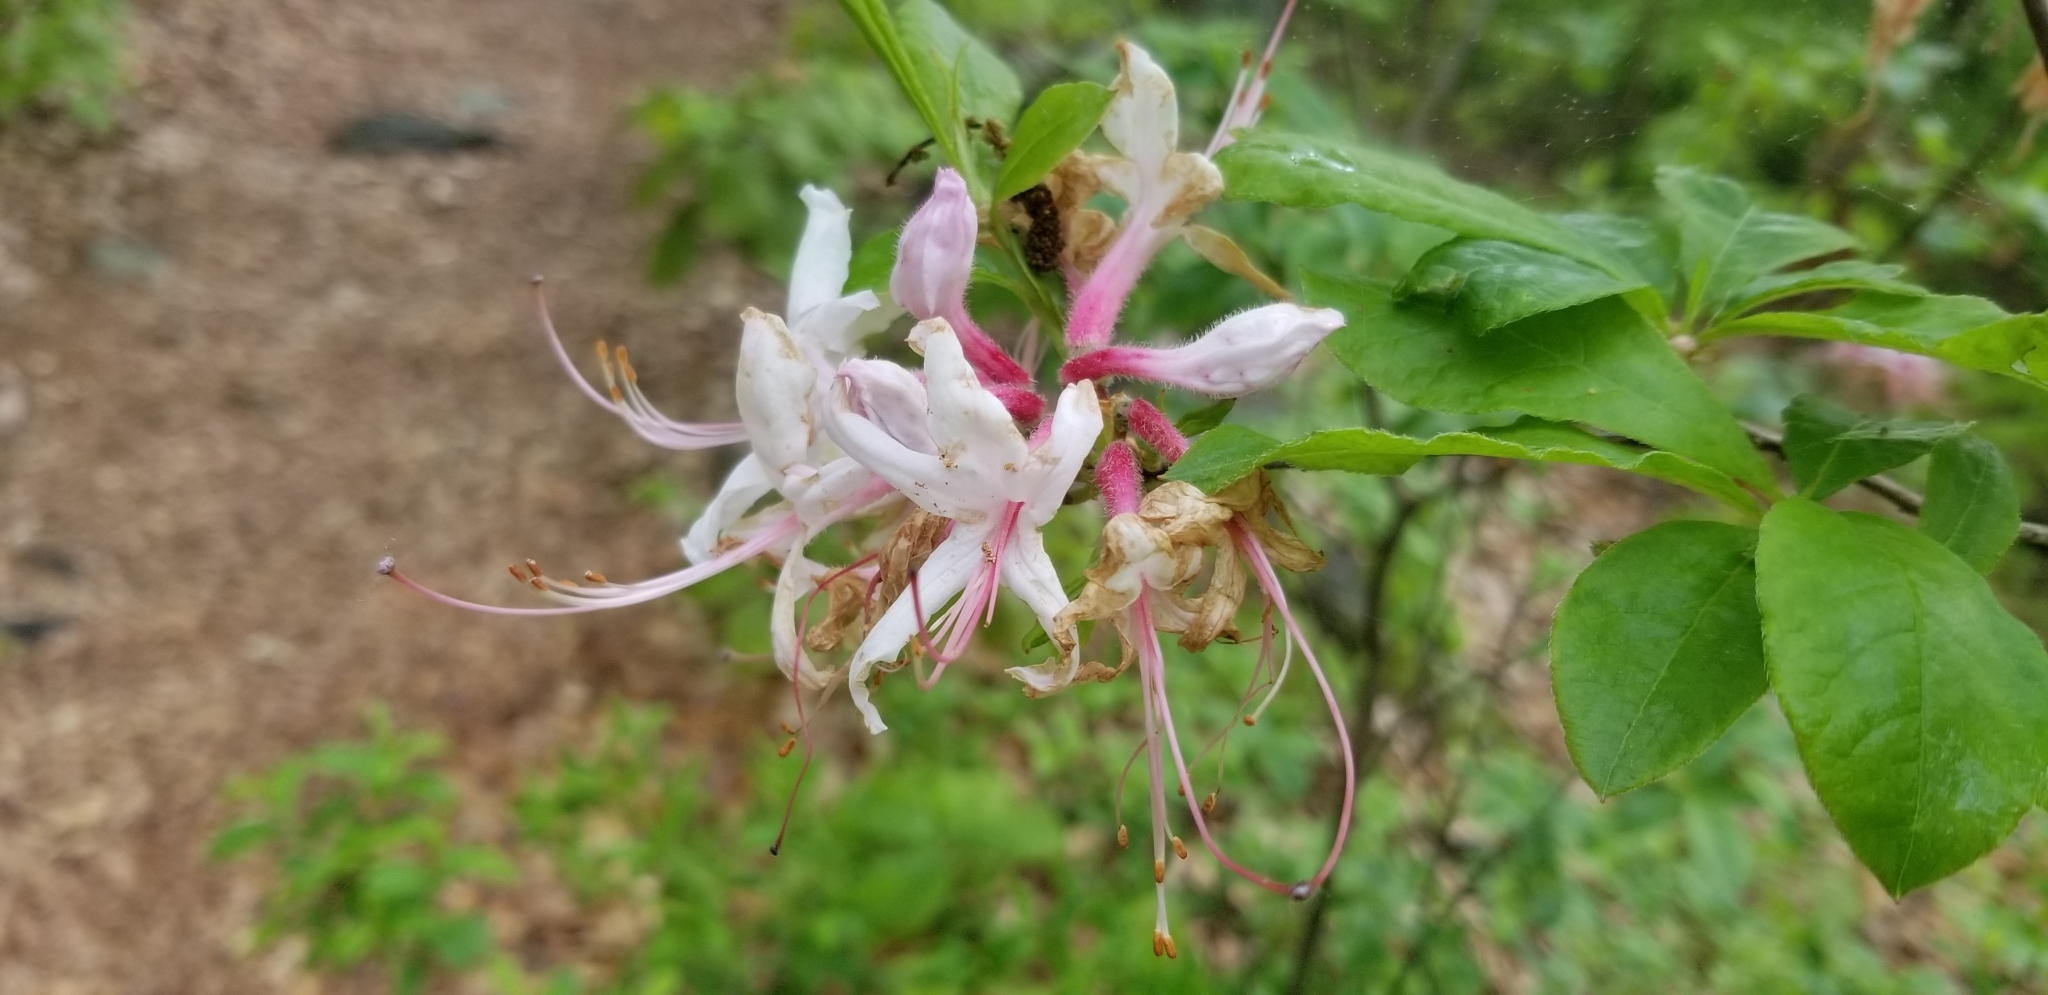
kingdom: Plantae
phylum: Tracheophyta
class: Magnoliopsida
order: Ericales
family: Ericaceae
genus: Rhododendron
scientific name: Rhododendron periclymenoides
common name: Election-pink
